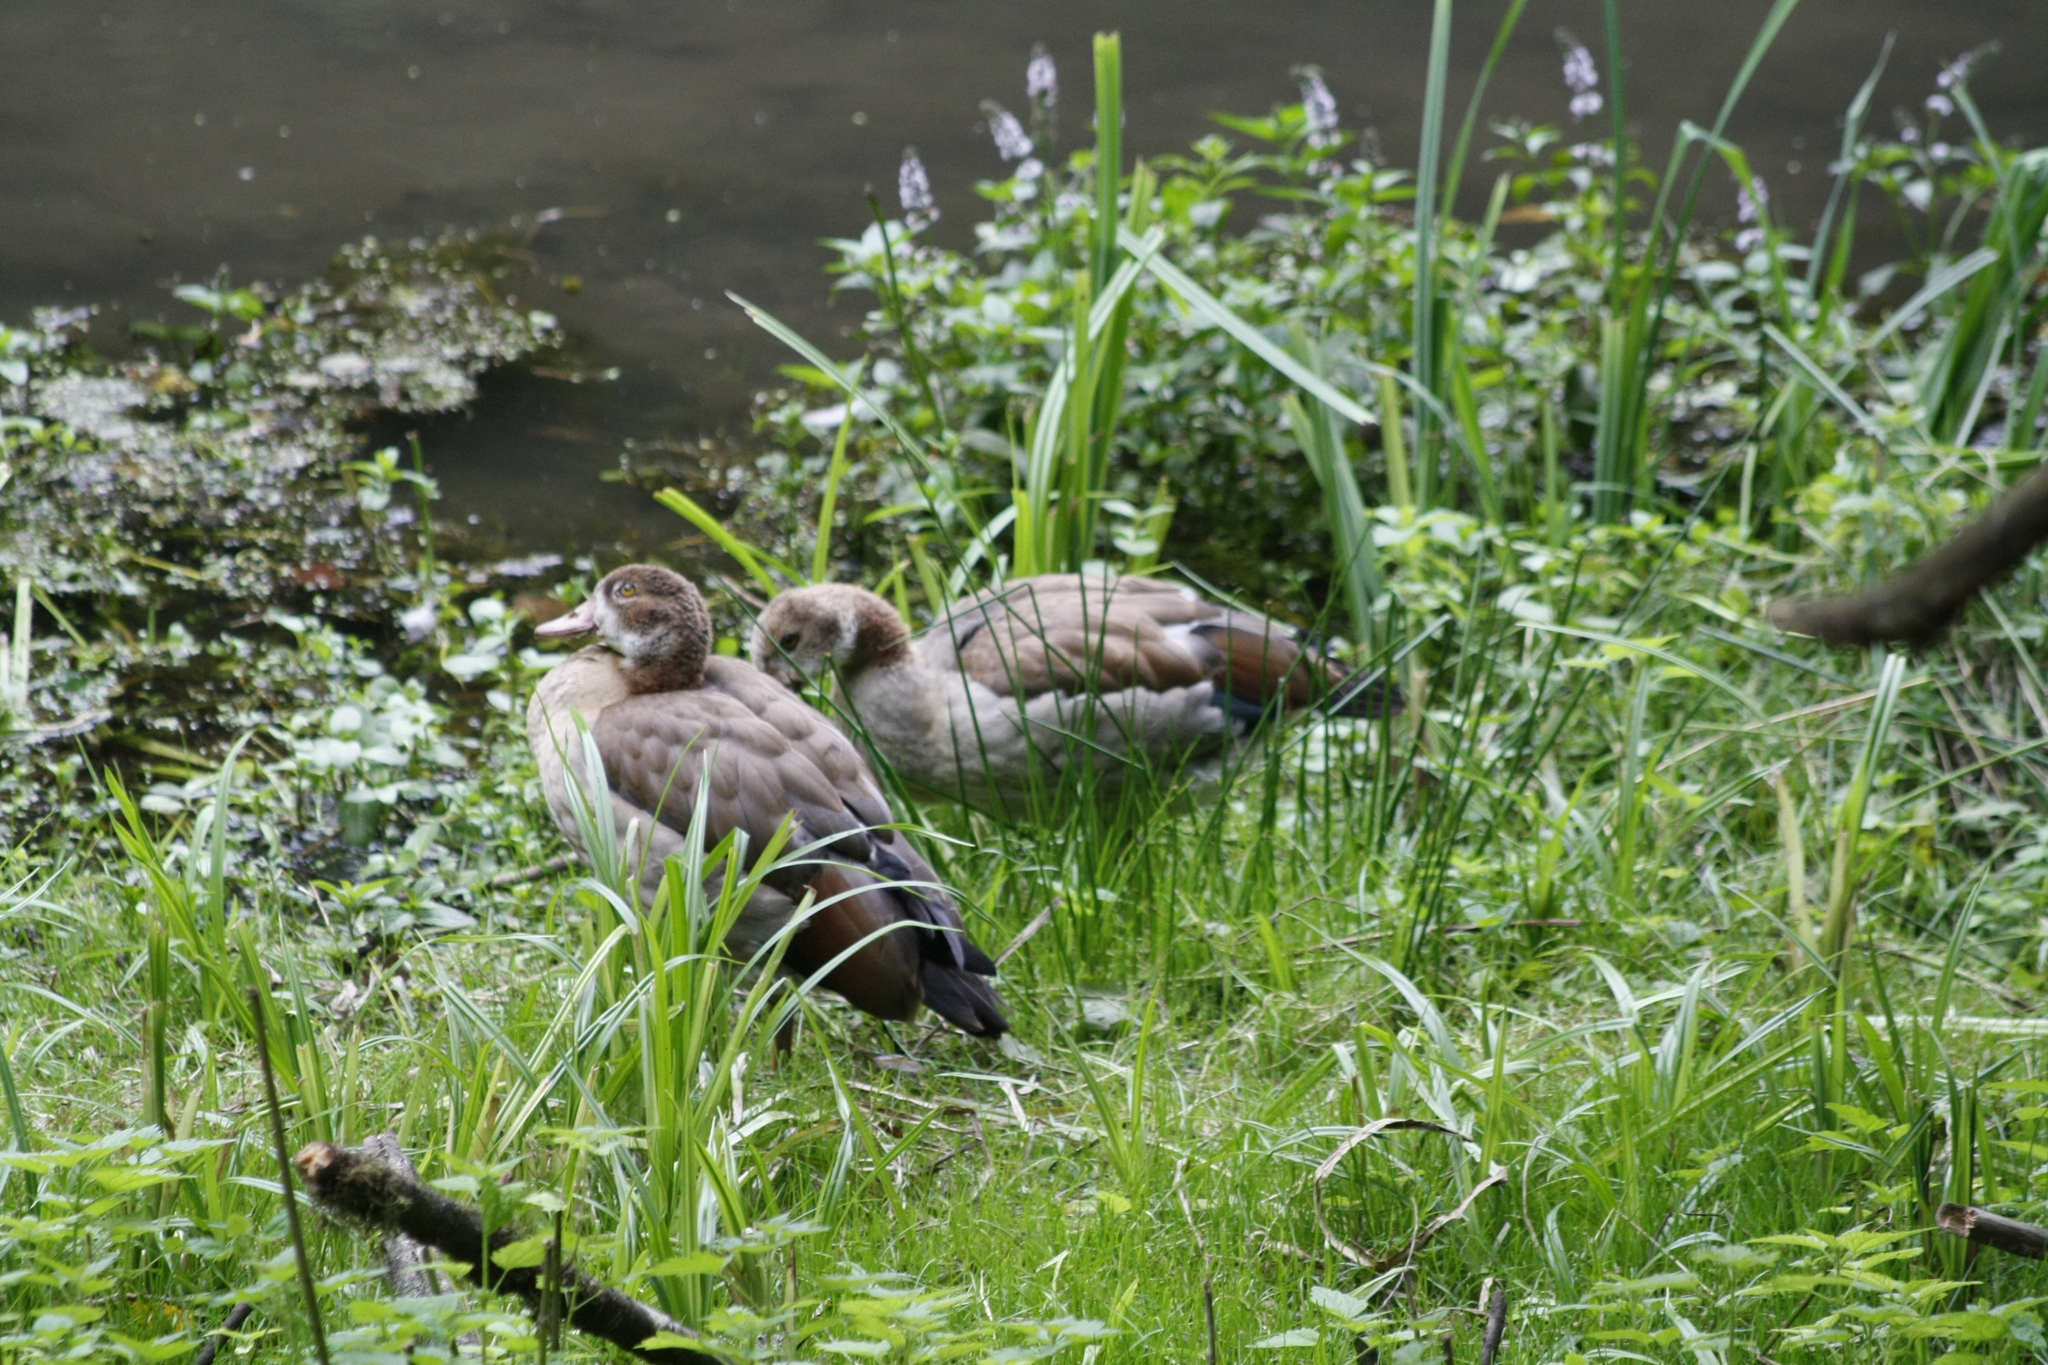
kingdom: Animalia
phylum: Chordata
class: Aves
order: Anseriformes
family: Anatidae
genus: Alopochen
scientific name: Alopochen aegyptiaca
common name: Egyptian goose
